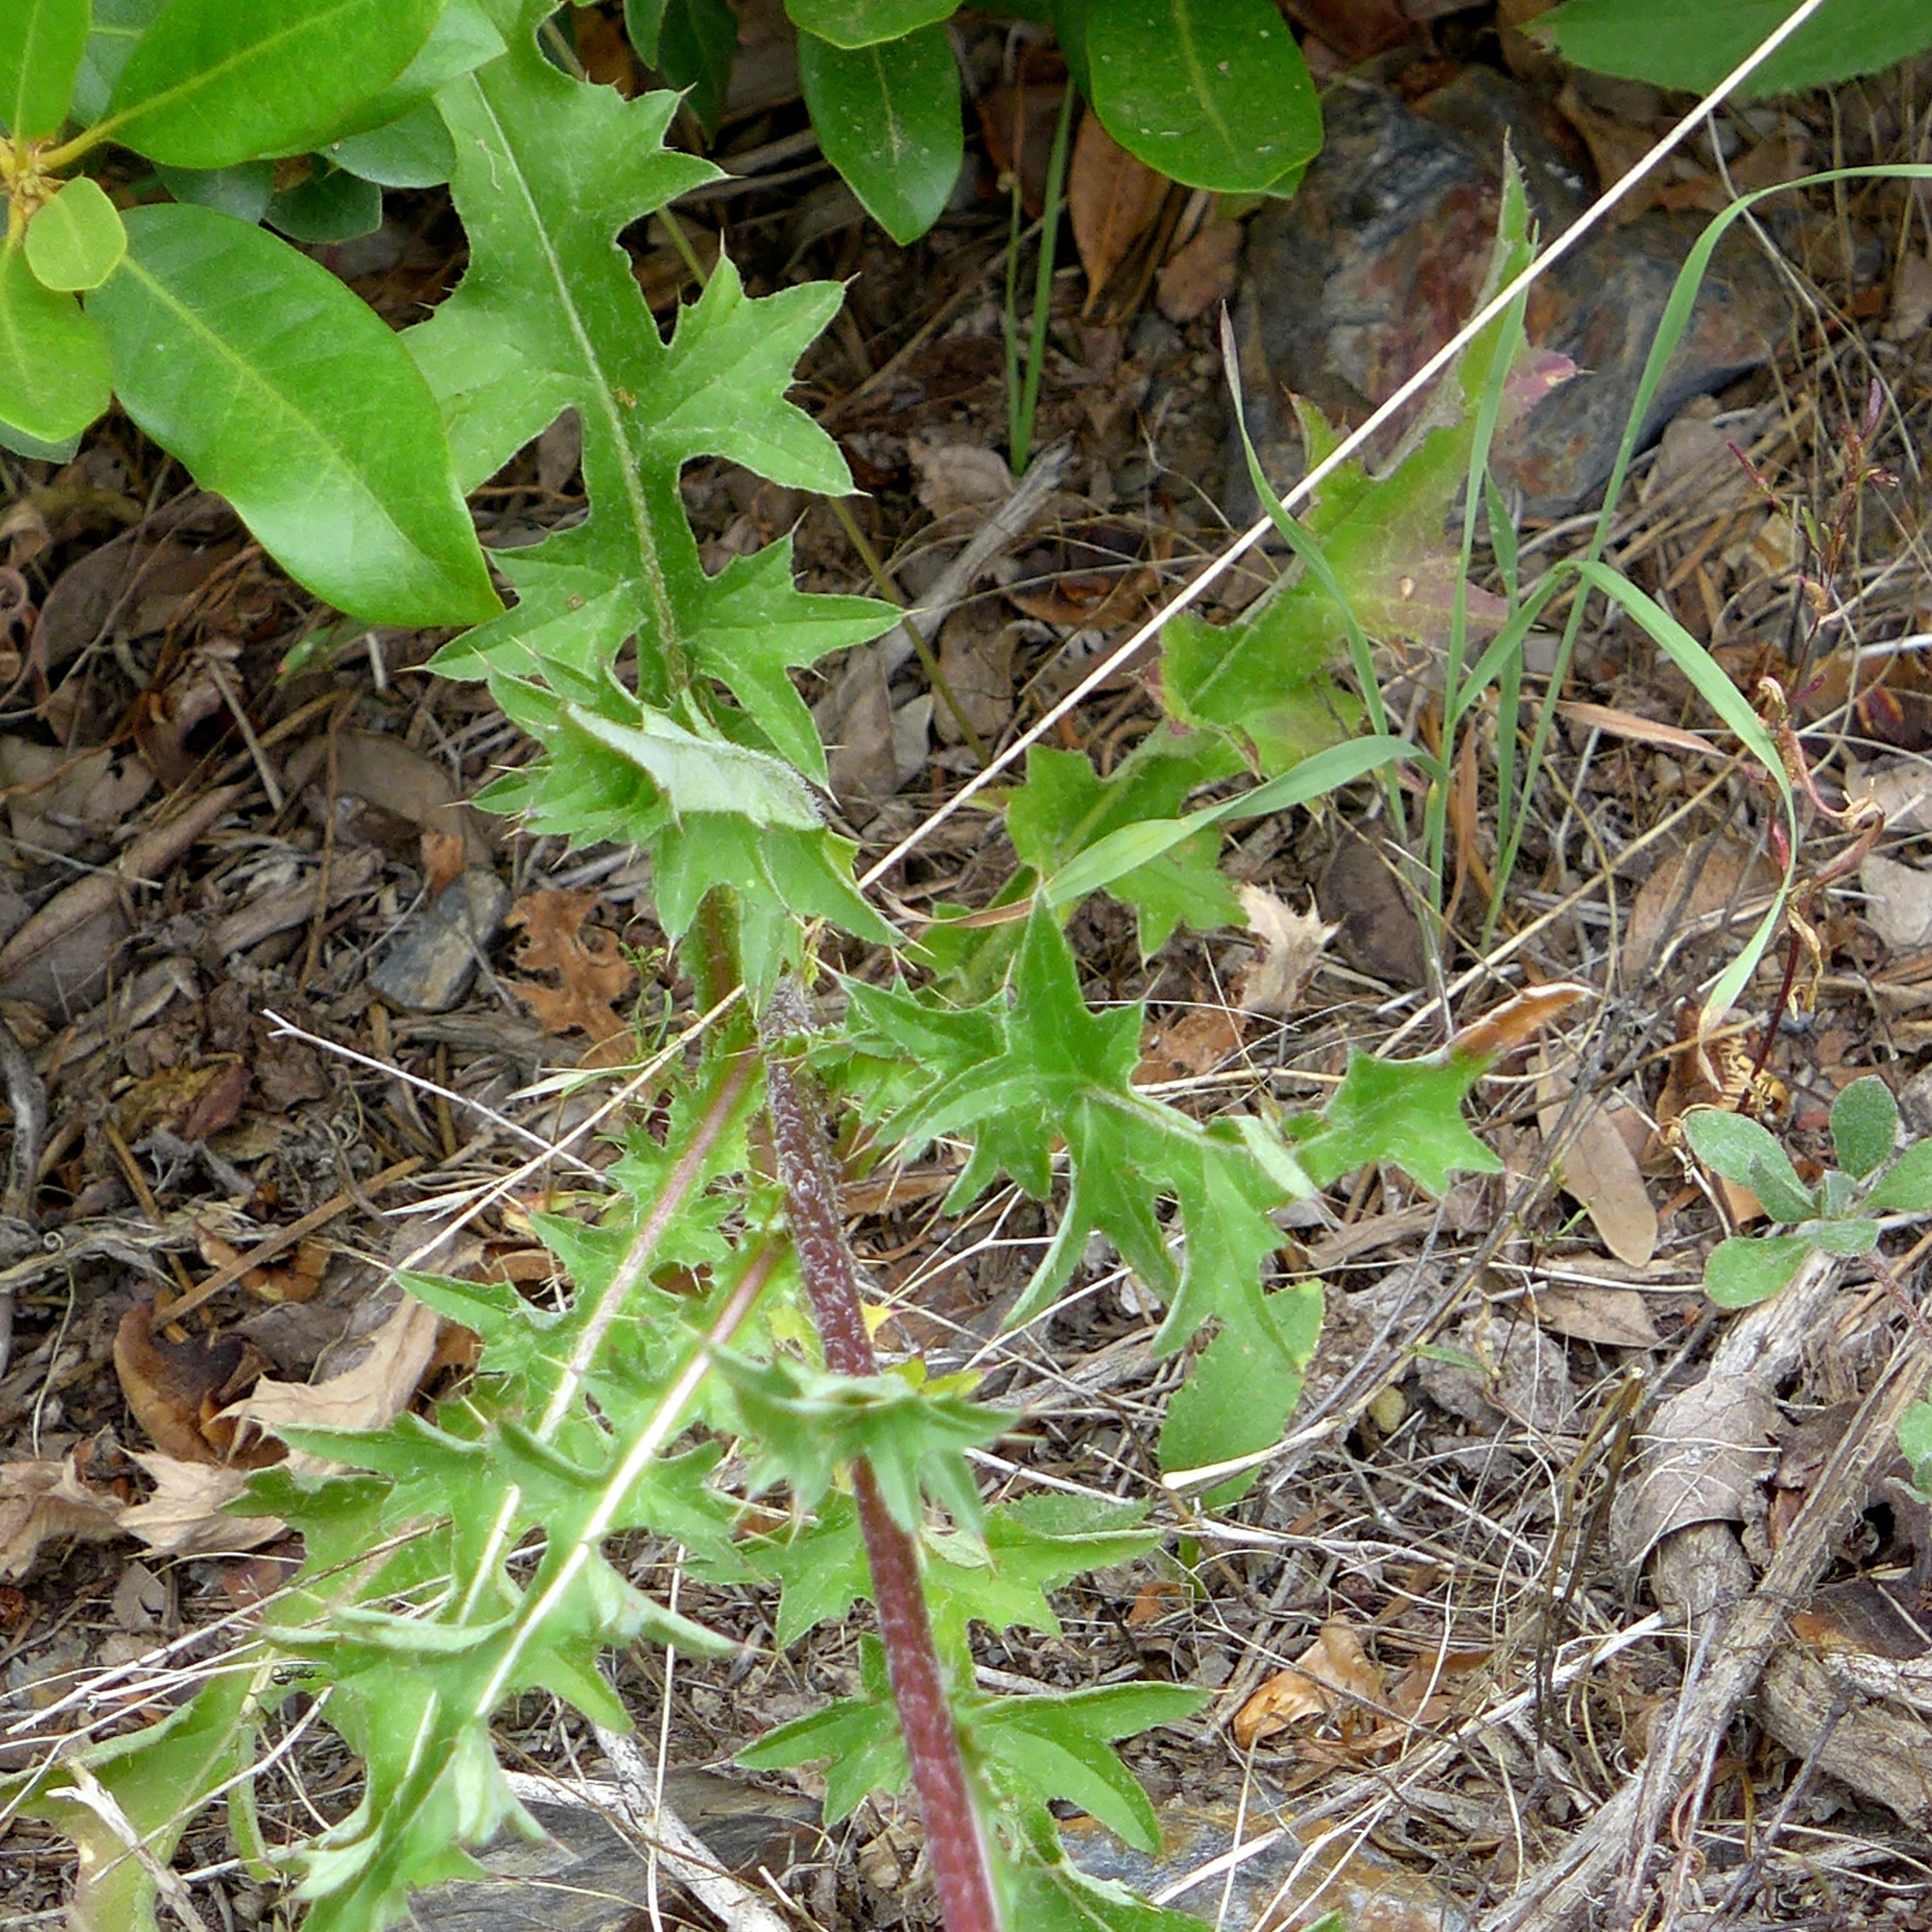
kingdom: Plantae
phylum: Tracheophyta
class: Magnoliopsida
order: Asterales
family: Asteraceae
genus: Cirsium
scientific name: Cirsium andersonii
